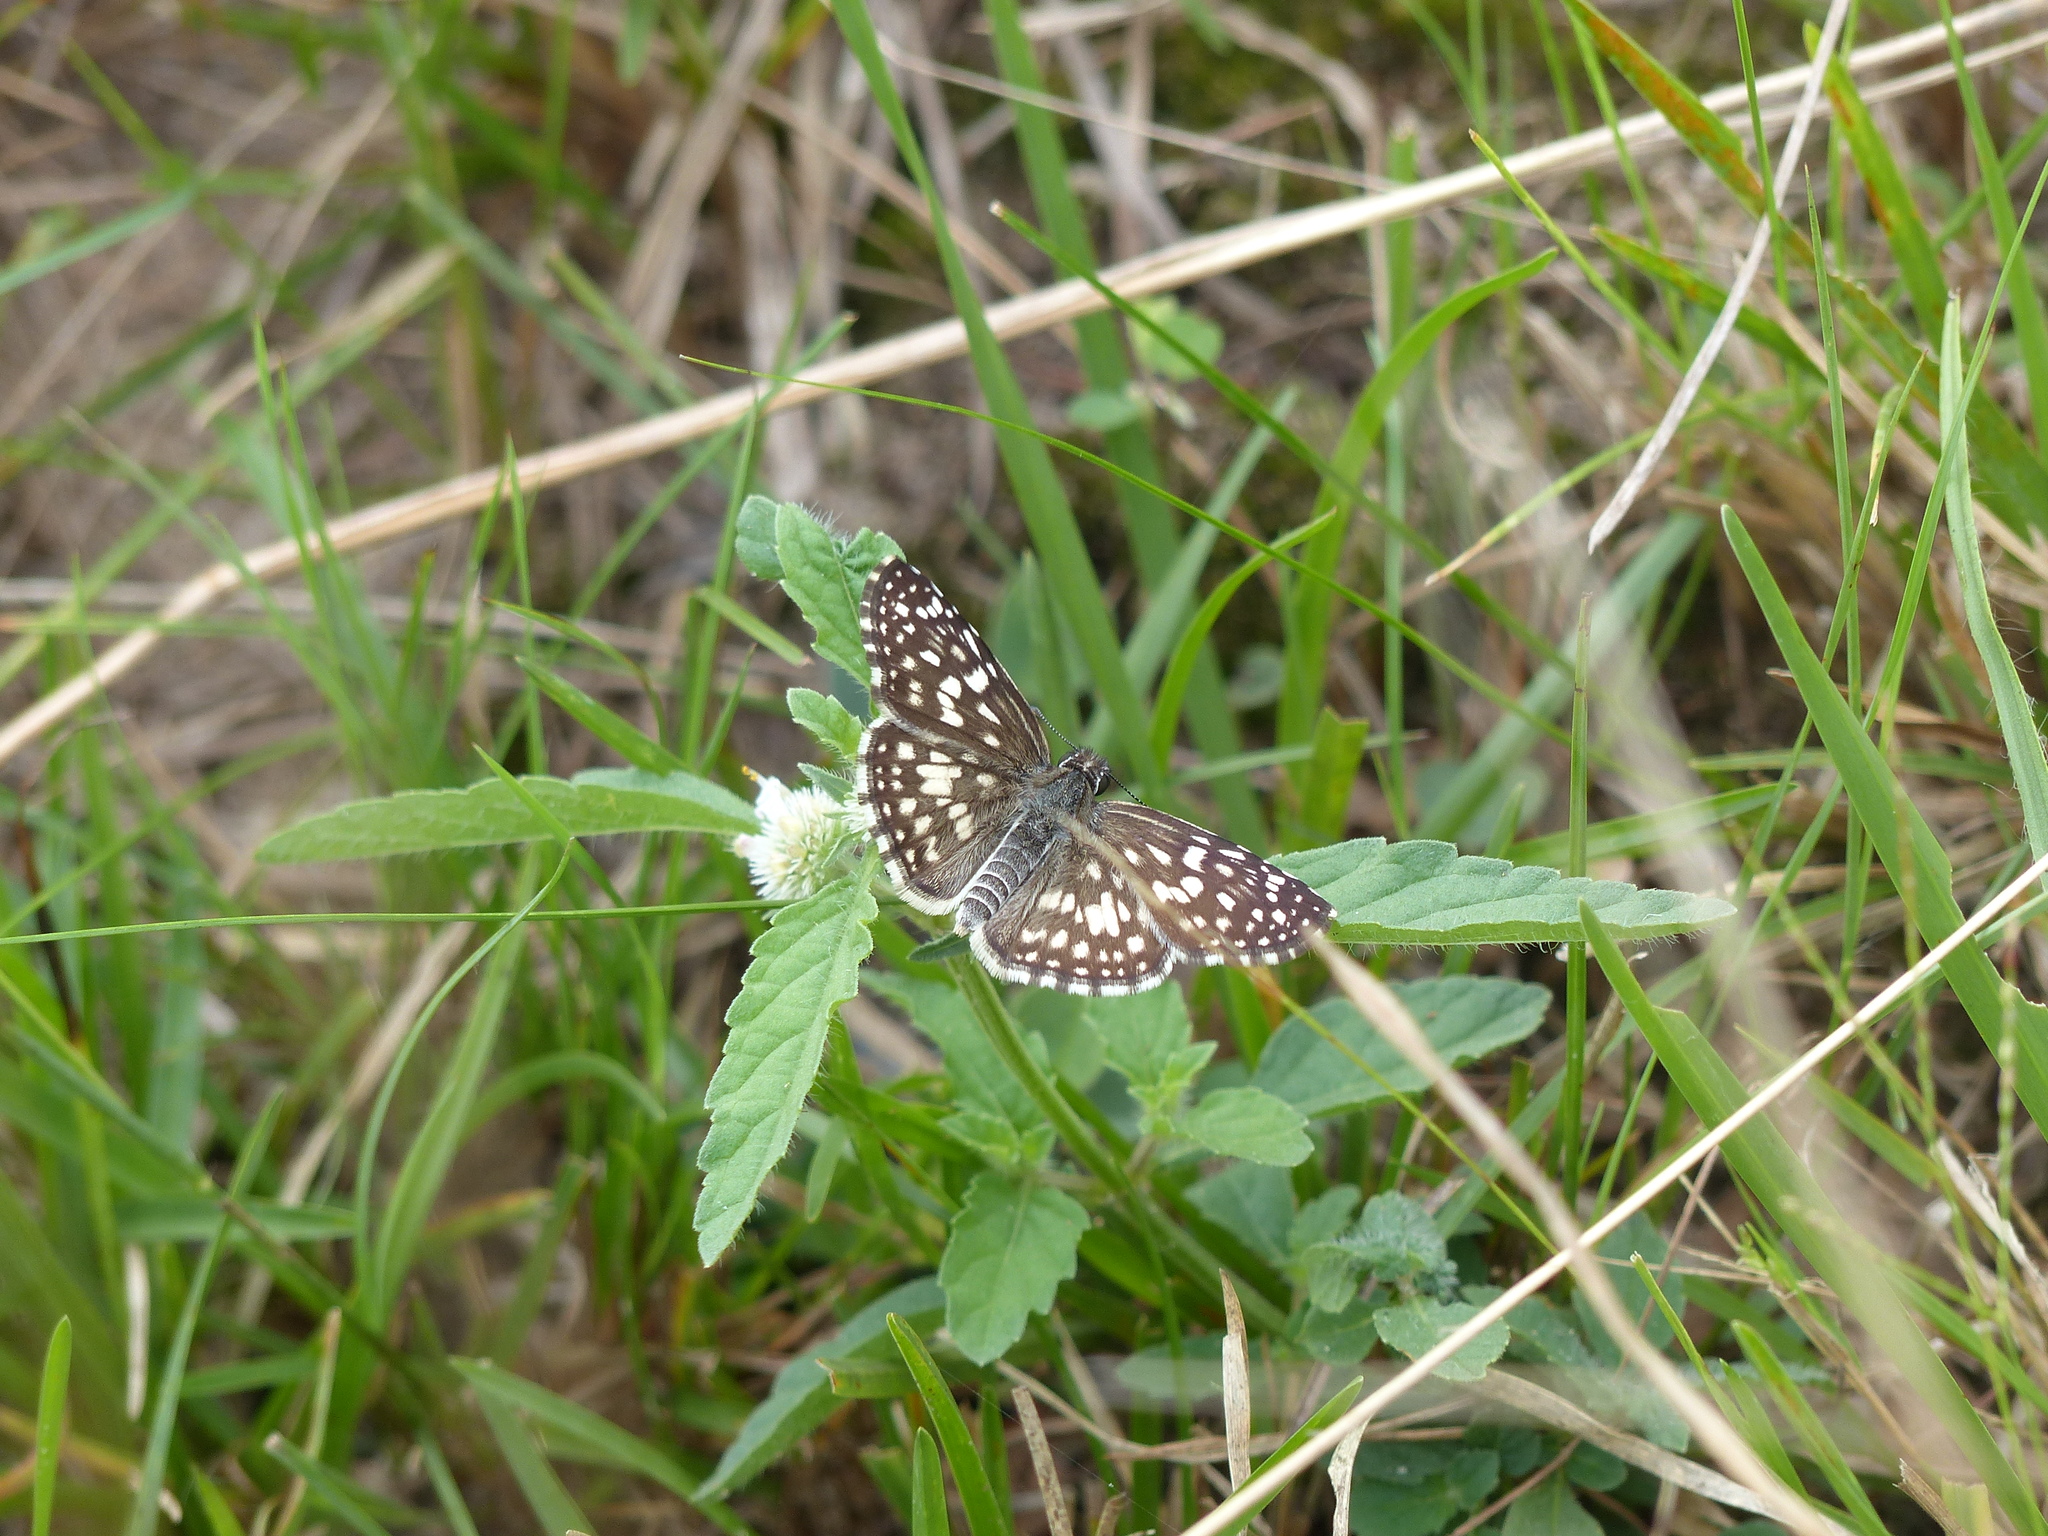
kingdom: Animalia
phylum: Arthropoda
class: Insecta
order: Lepidoptera
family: Hesperiidae
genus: Pyrgus
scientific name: Pyrgus oileus
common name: Tropical checkered-skipper
